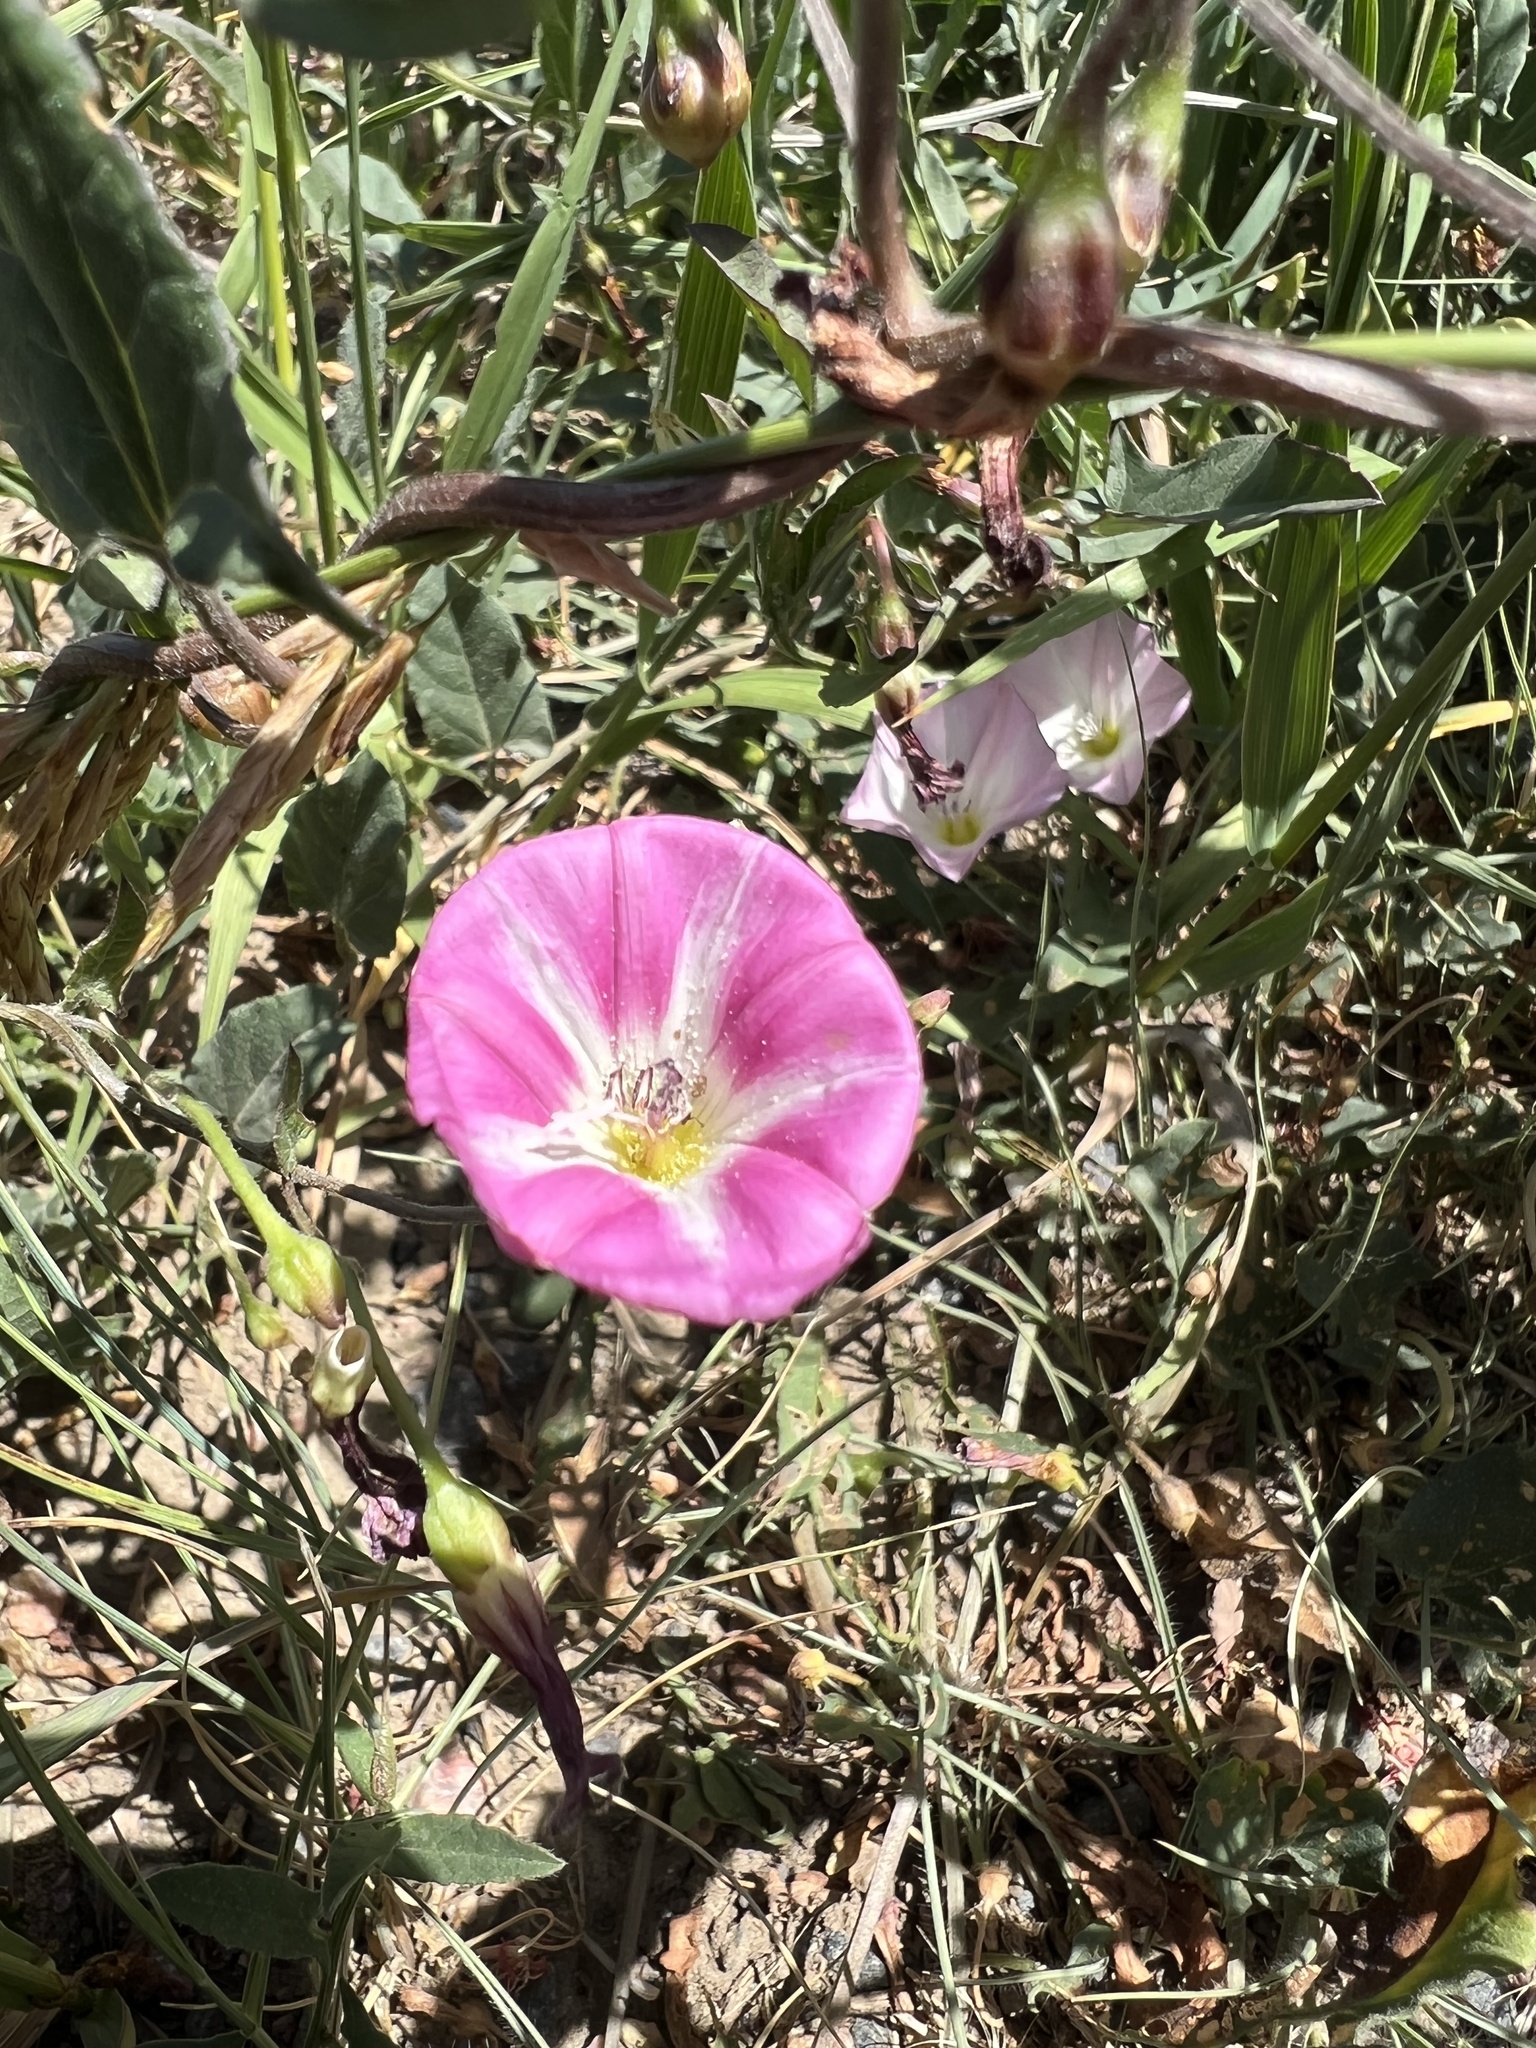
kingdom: Plantae
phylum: Tracheophyta
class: Magnoliopsida
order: Solanales
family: Convolvulaceae
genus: Convolvulus
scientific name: Convolvulus arvensis
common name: Field bindweed
